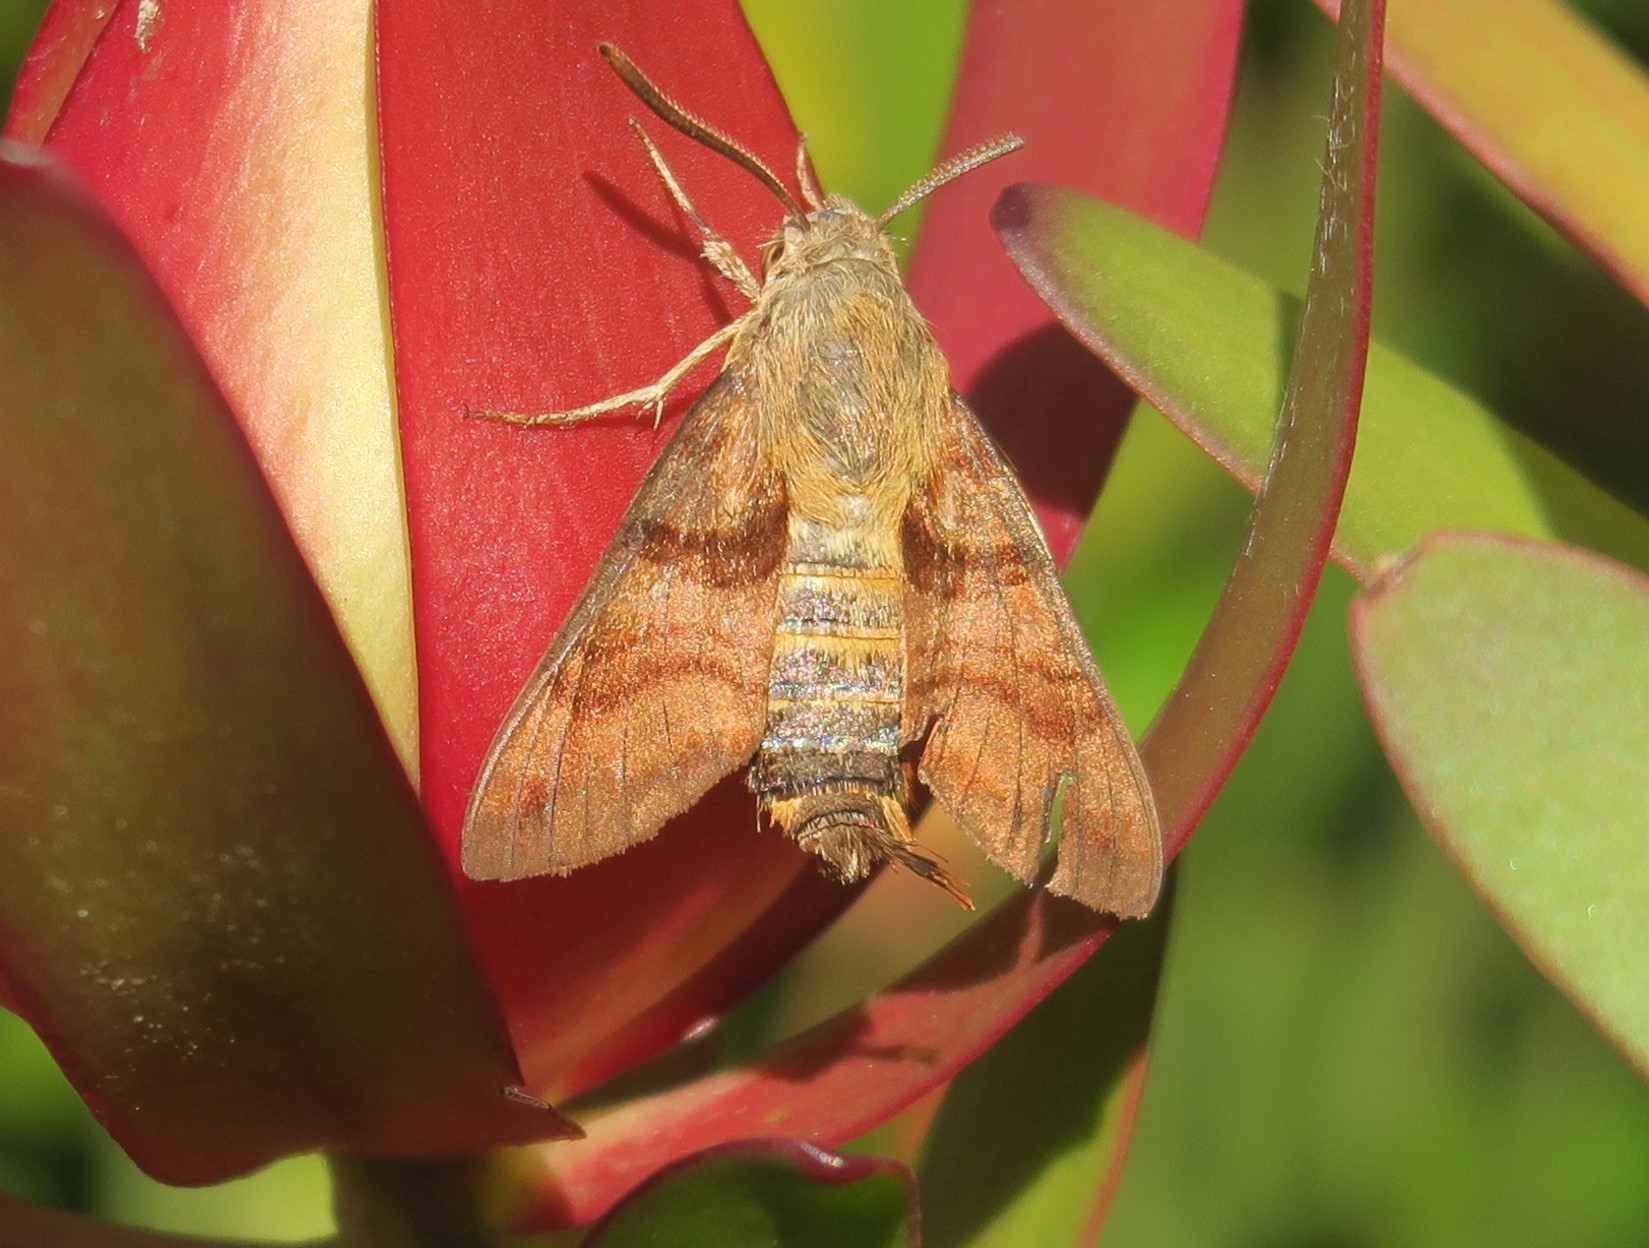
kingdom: Animalia
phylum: Arthropoda
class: Insecta
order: Lepidoptera
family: Sphingidae
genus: Macroglossum
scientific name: Macroglossum trochilus
